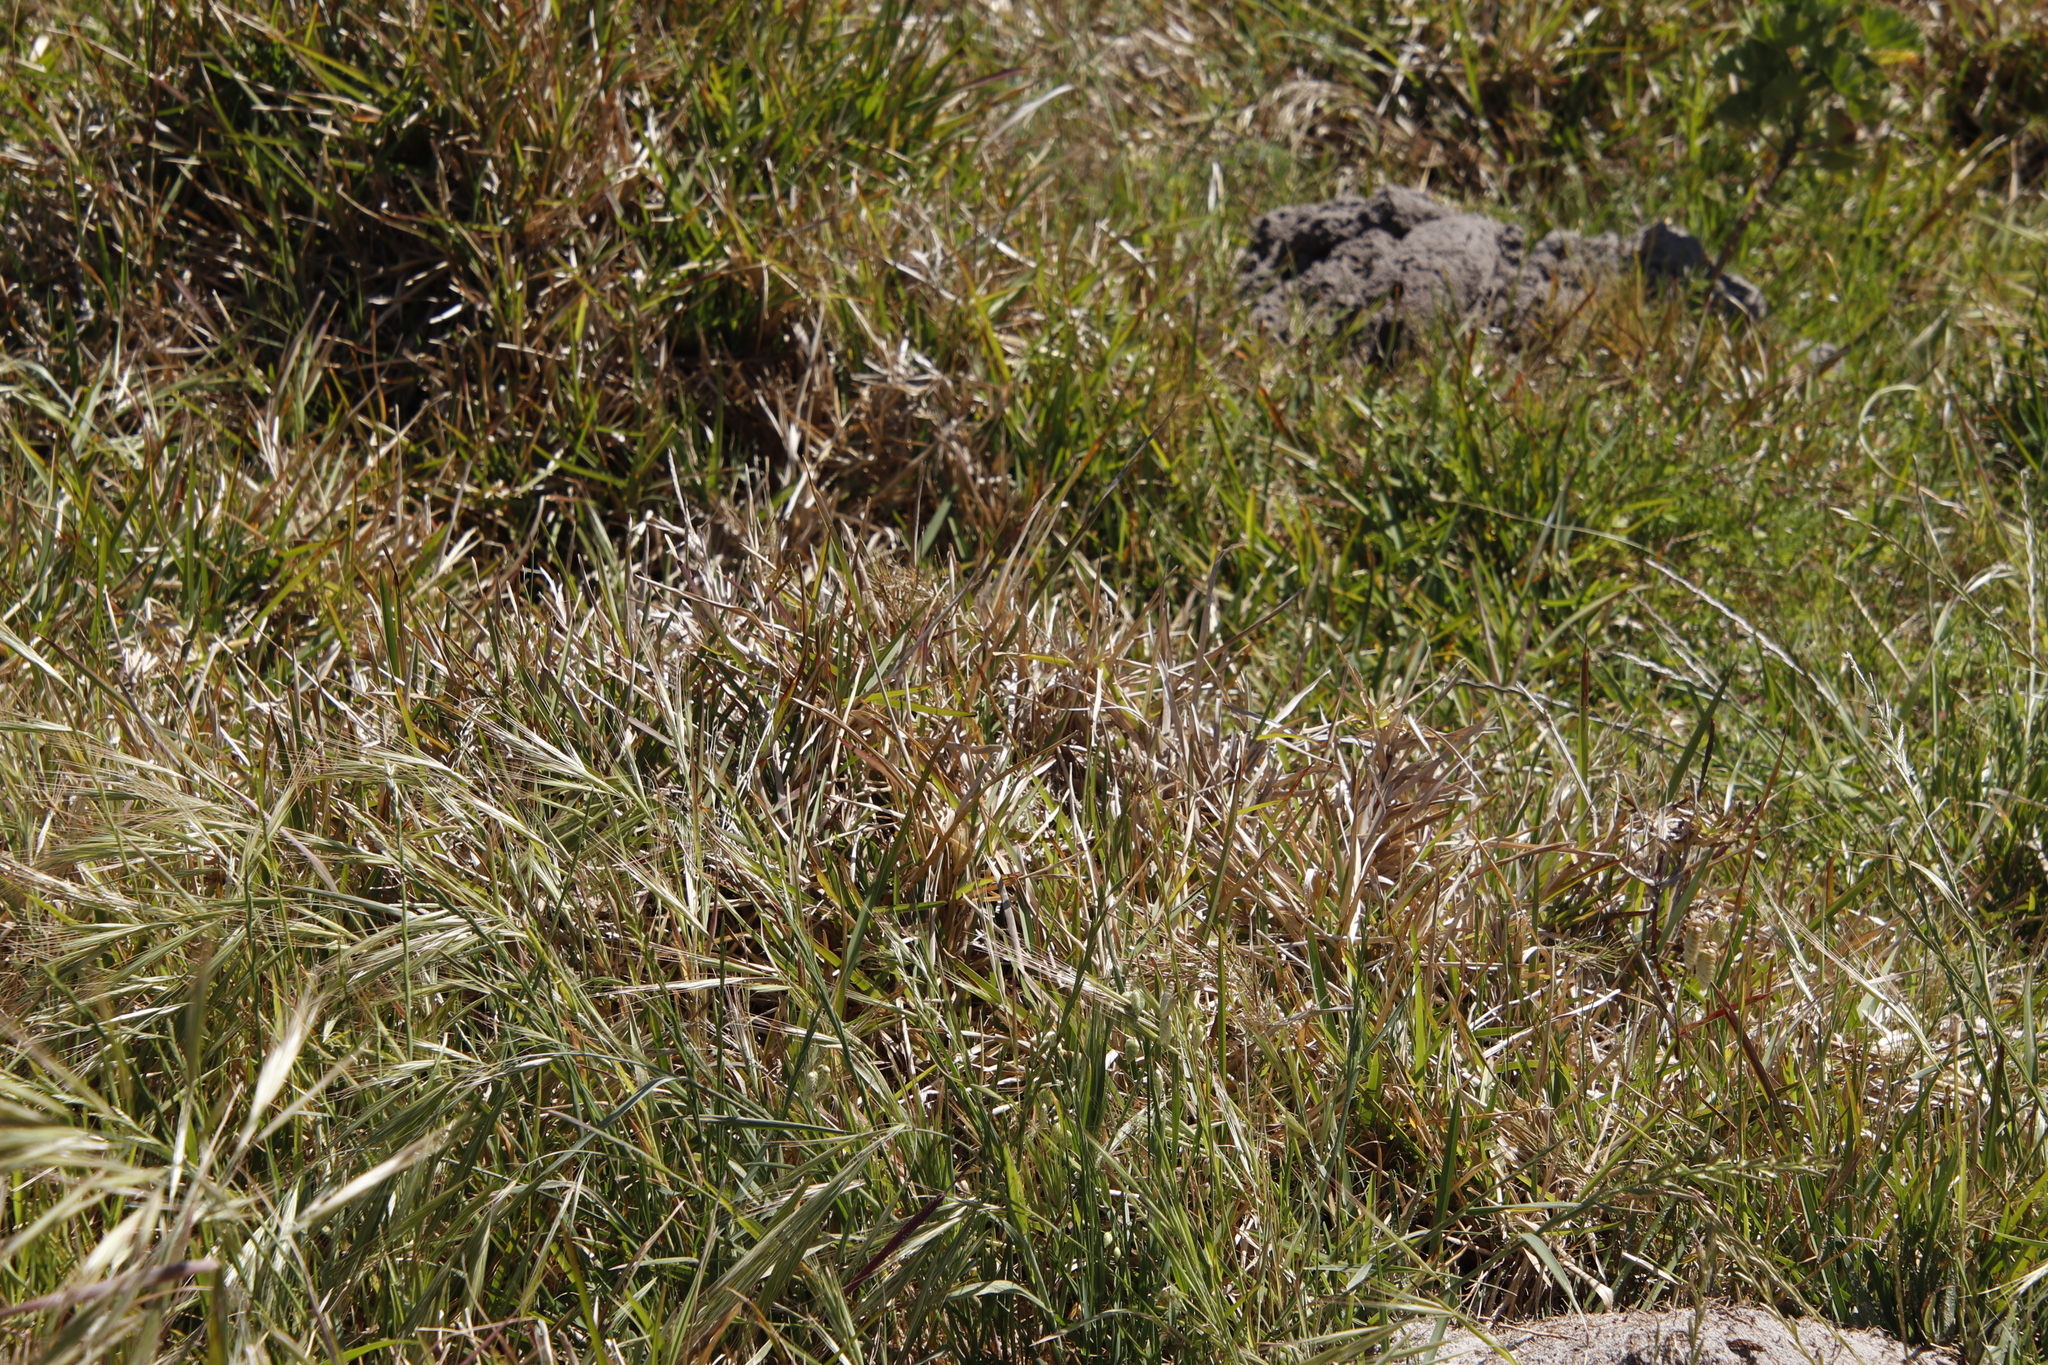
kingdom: Plantae
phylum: Tracheophyta
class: Liliopsida
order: Poales
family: Poaceae
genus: Stenotaphrum
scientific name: Stenotaphrum secundatum
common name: St. augustine grass
